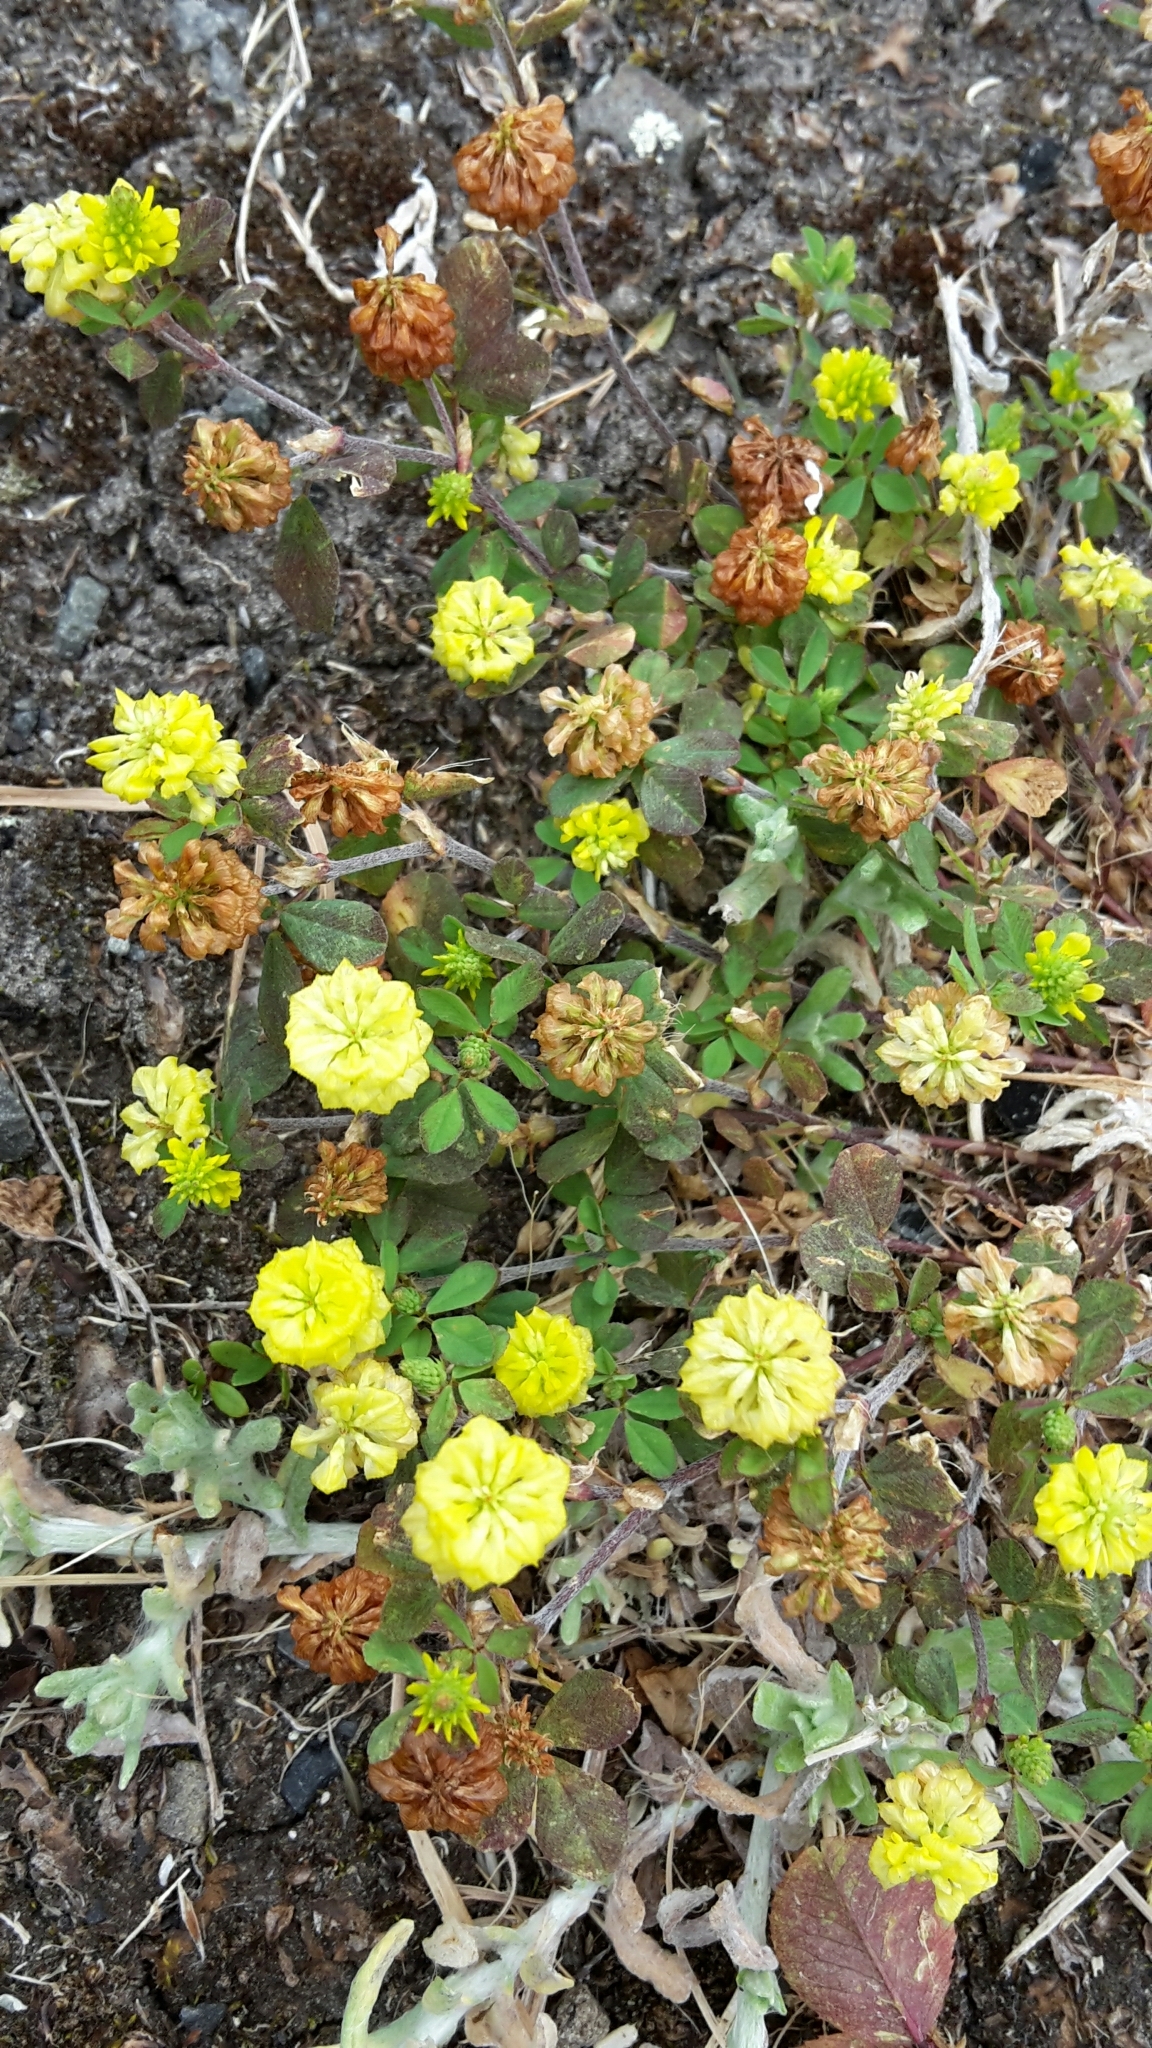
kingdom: Plantae
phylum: Tracheophyta
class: Magnoliopsida
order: Fabales
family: Fabaceae
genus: Trifolium
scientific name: Trifolium campestre
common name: Field clover
